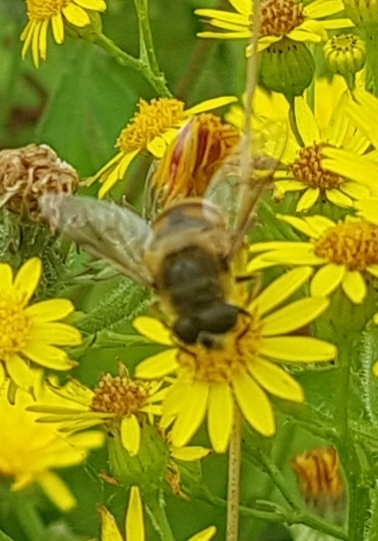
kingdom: Animalia
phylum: Arthropoda
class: Insecta
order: Diptera
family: Syrphidae
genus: Eristalis
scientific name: Eristalis tenax
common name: Drone fly
